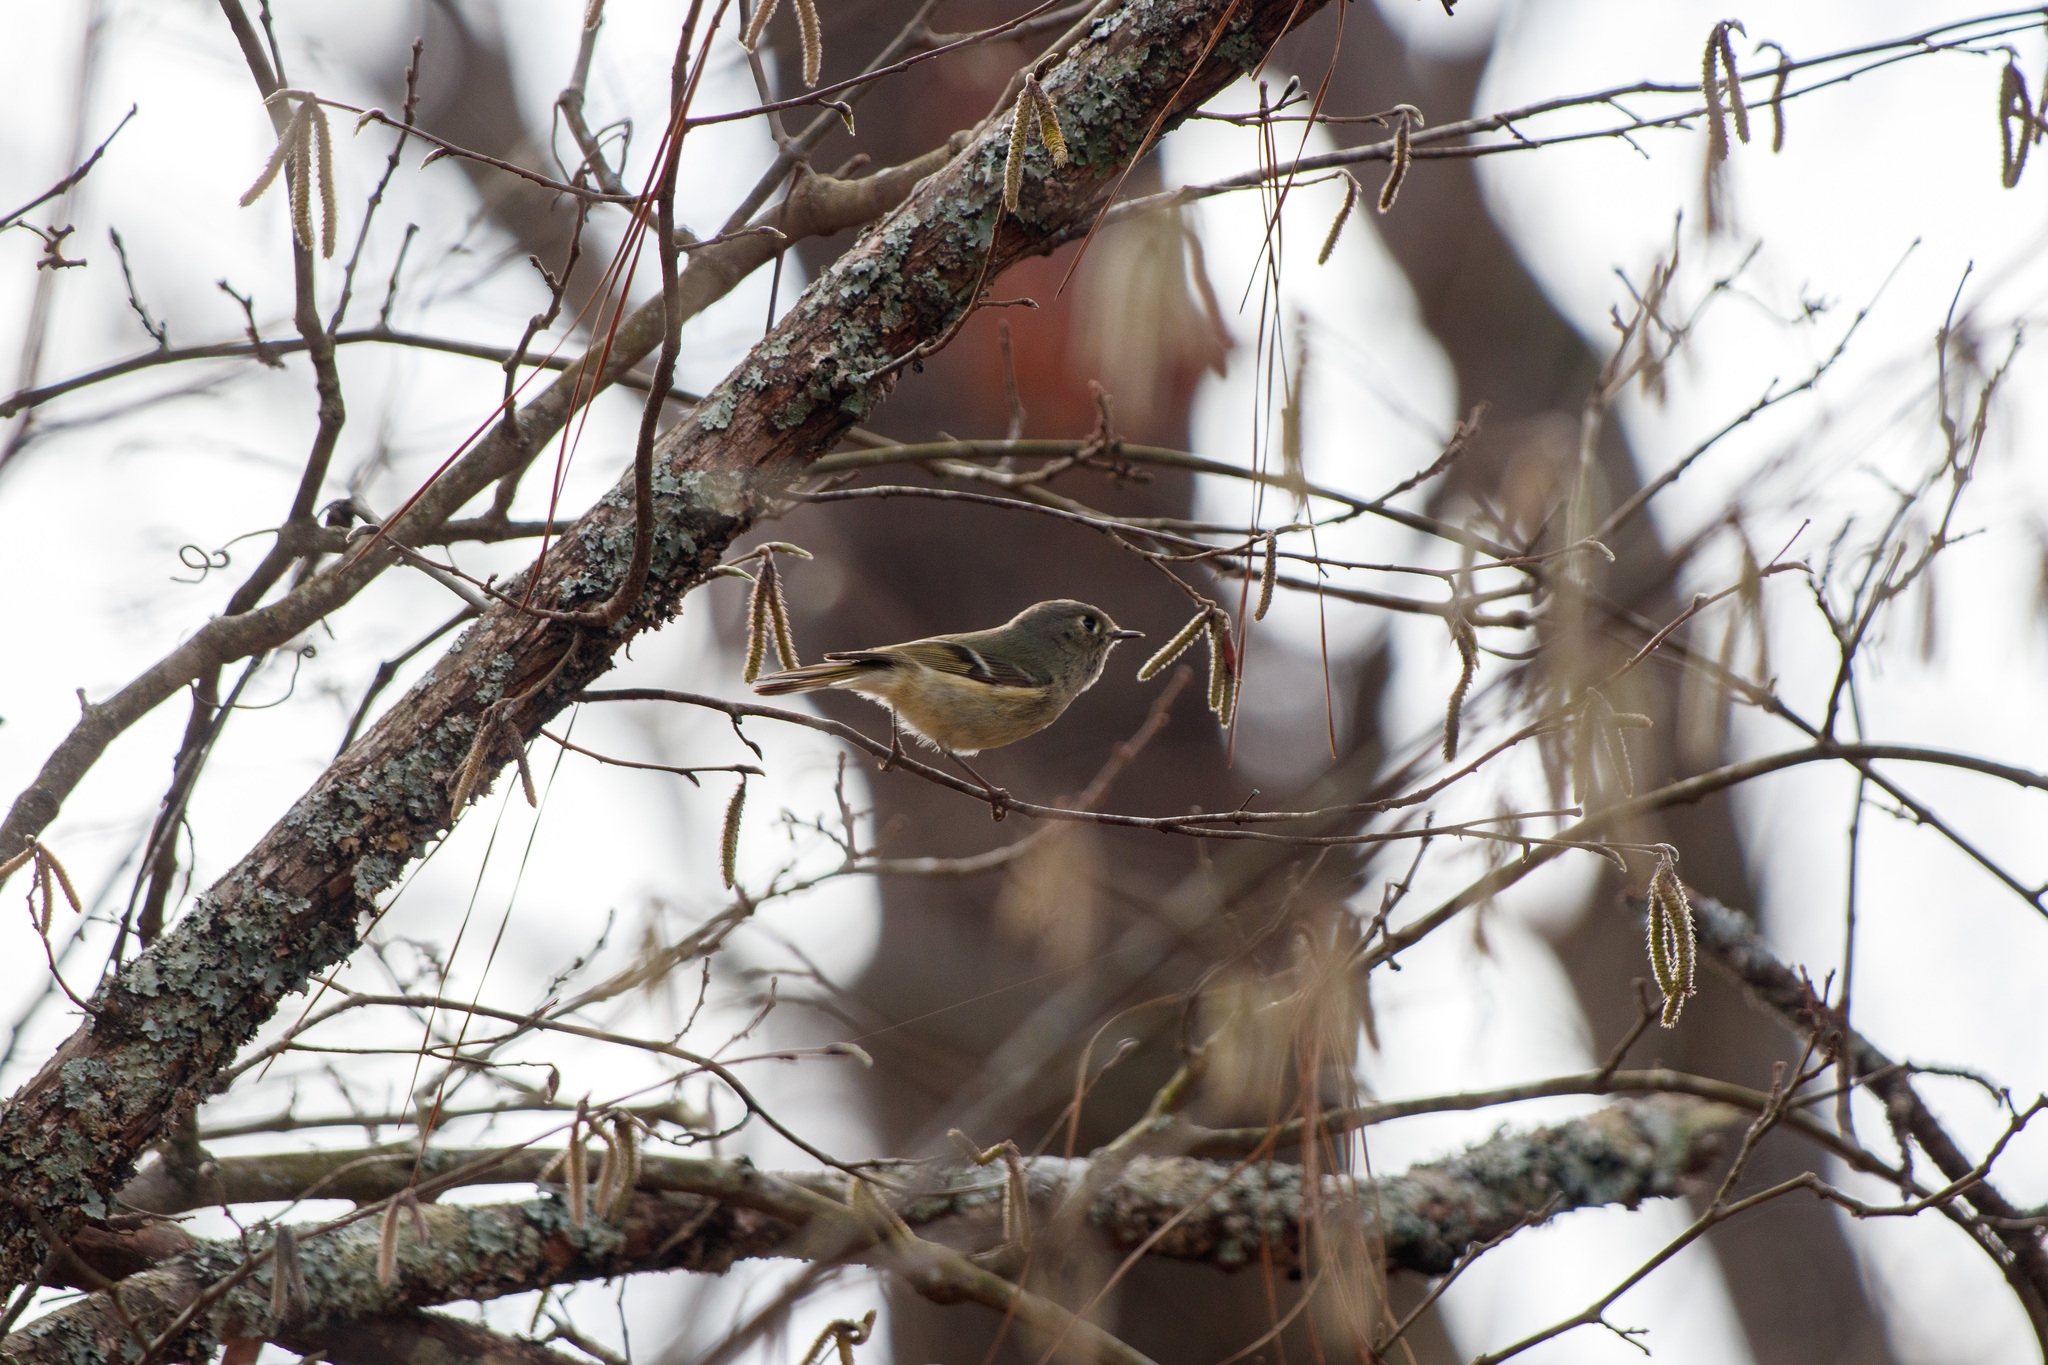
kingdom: Animalia
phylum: Chordata
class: Aves
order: Passeriformes
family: Regulidae
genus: Regulus
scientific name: Regulus calendula
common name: Ruby-crowned kinglet
